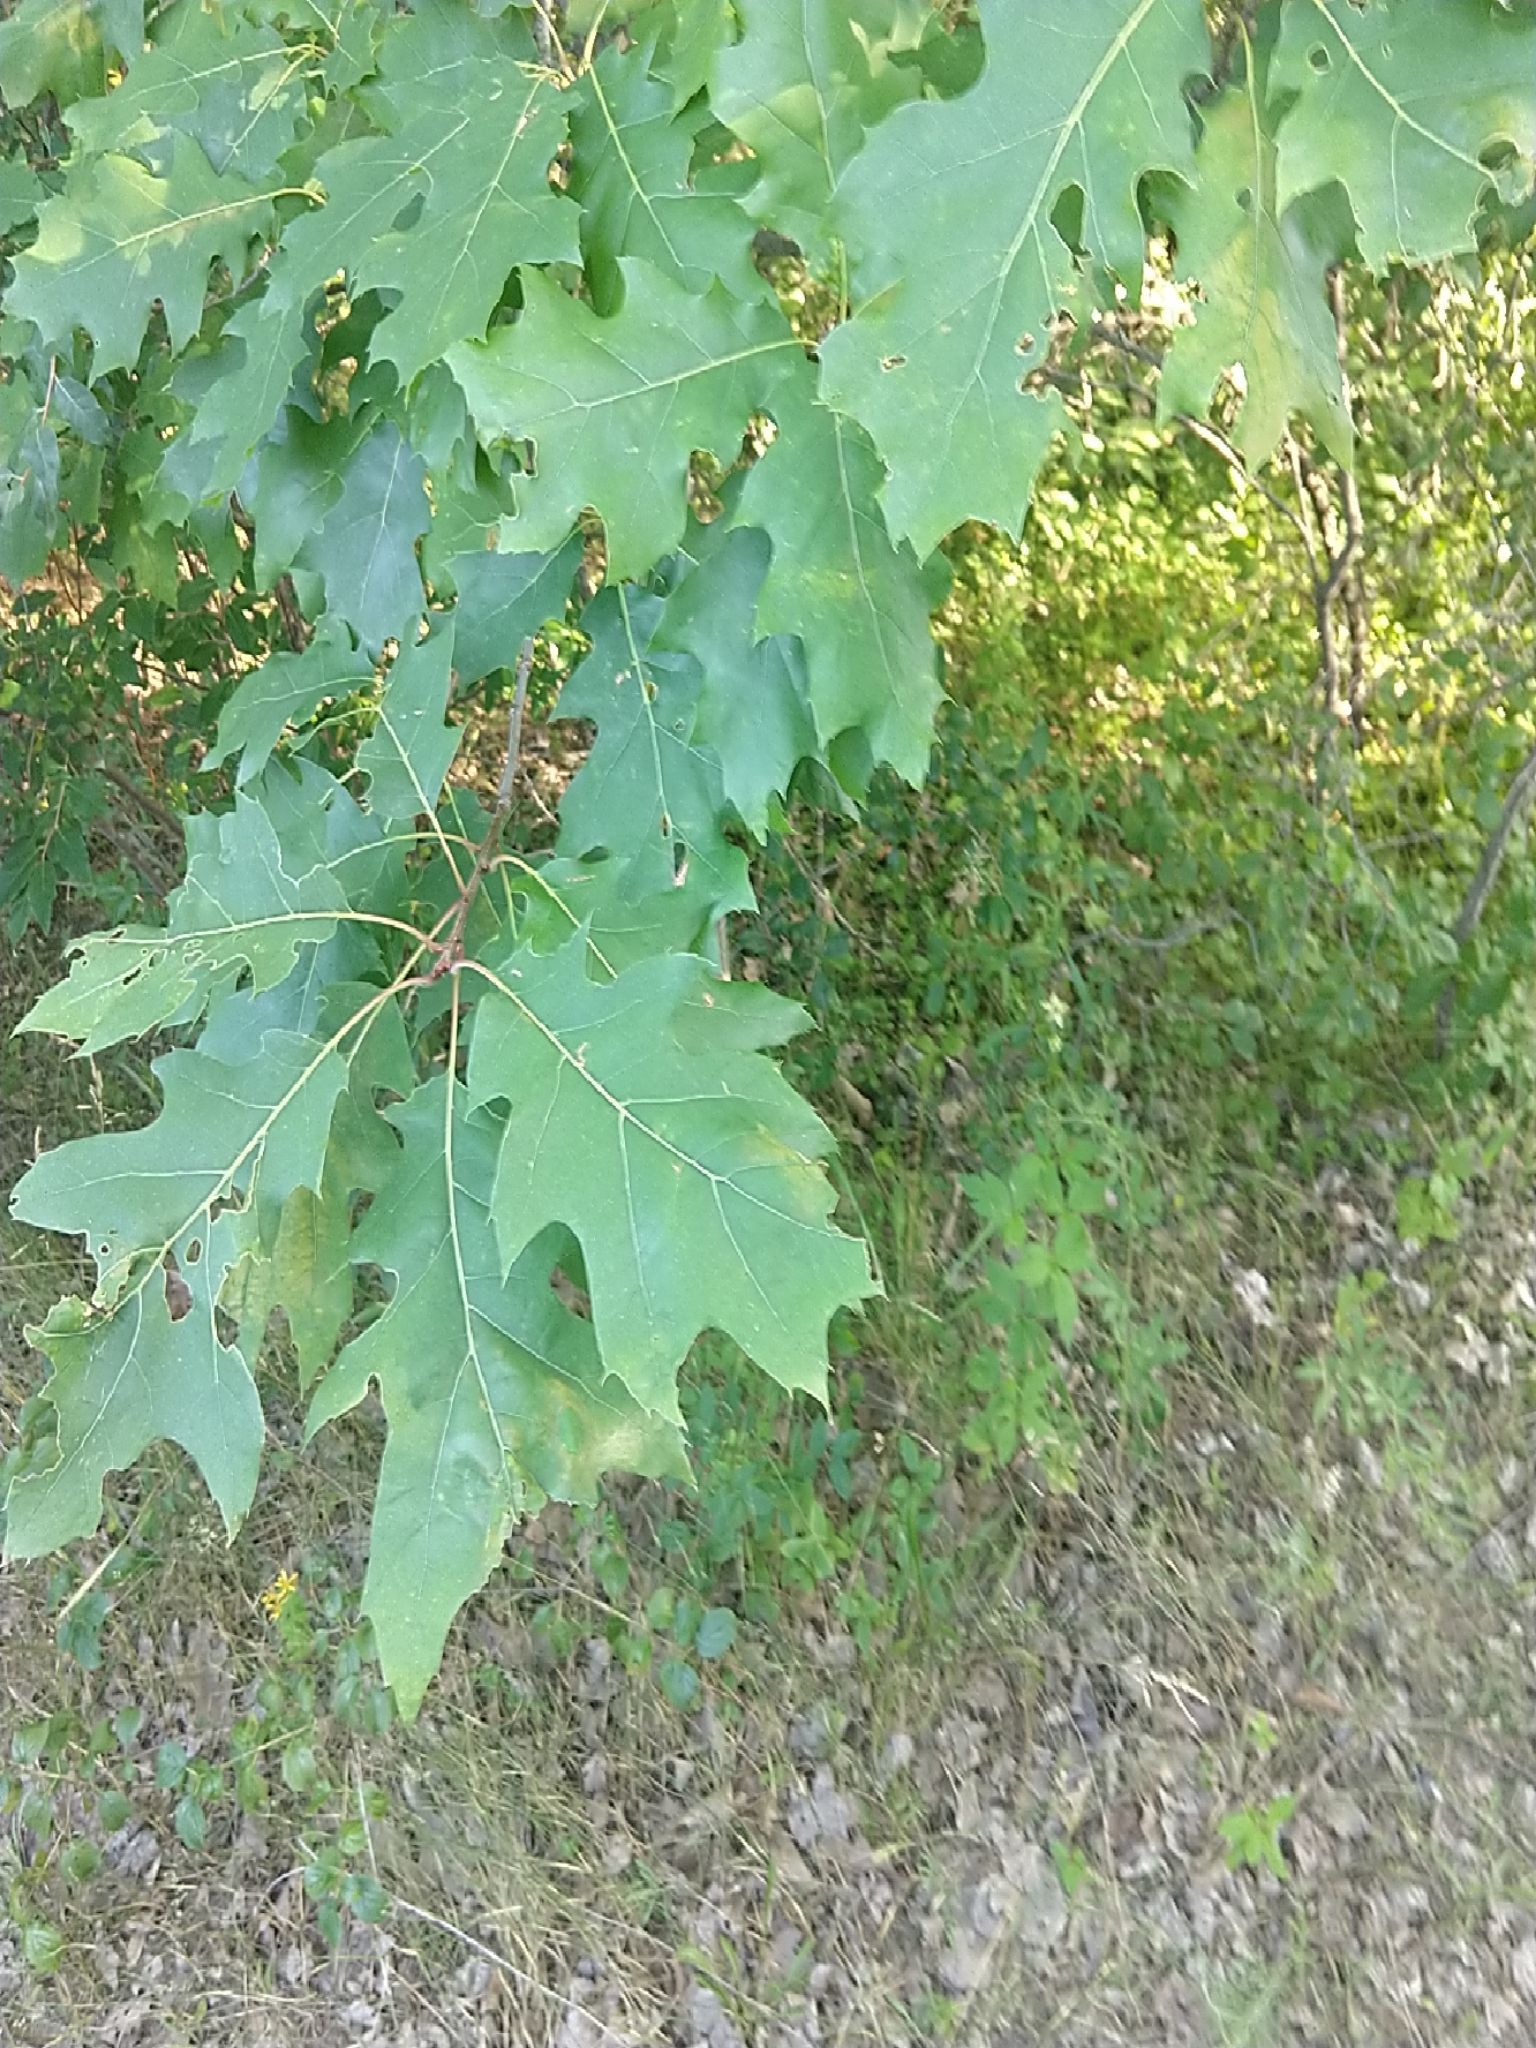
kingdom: Plantae
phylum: Tracheophyta
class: Magnoliopsida
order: Fagales
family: Fagaceae
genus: Quercus
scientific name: Quercus rubra
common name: Red oak
